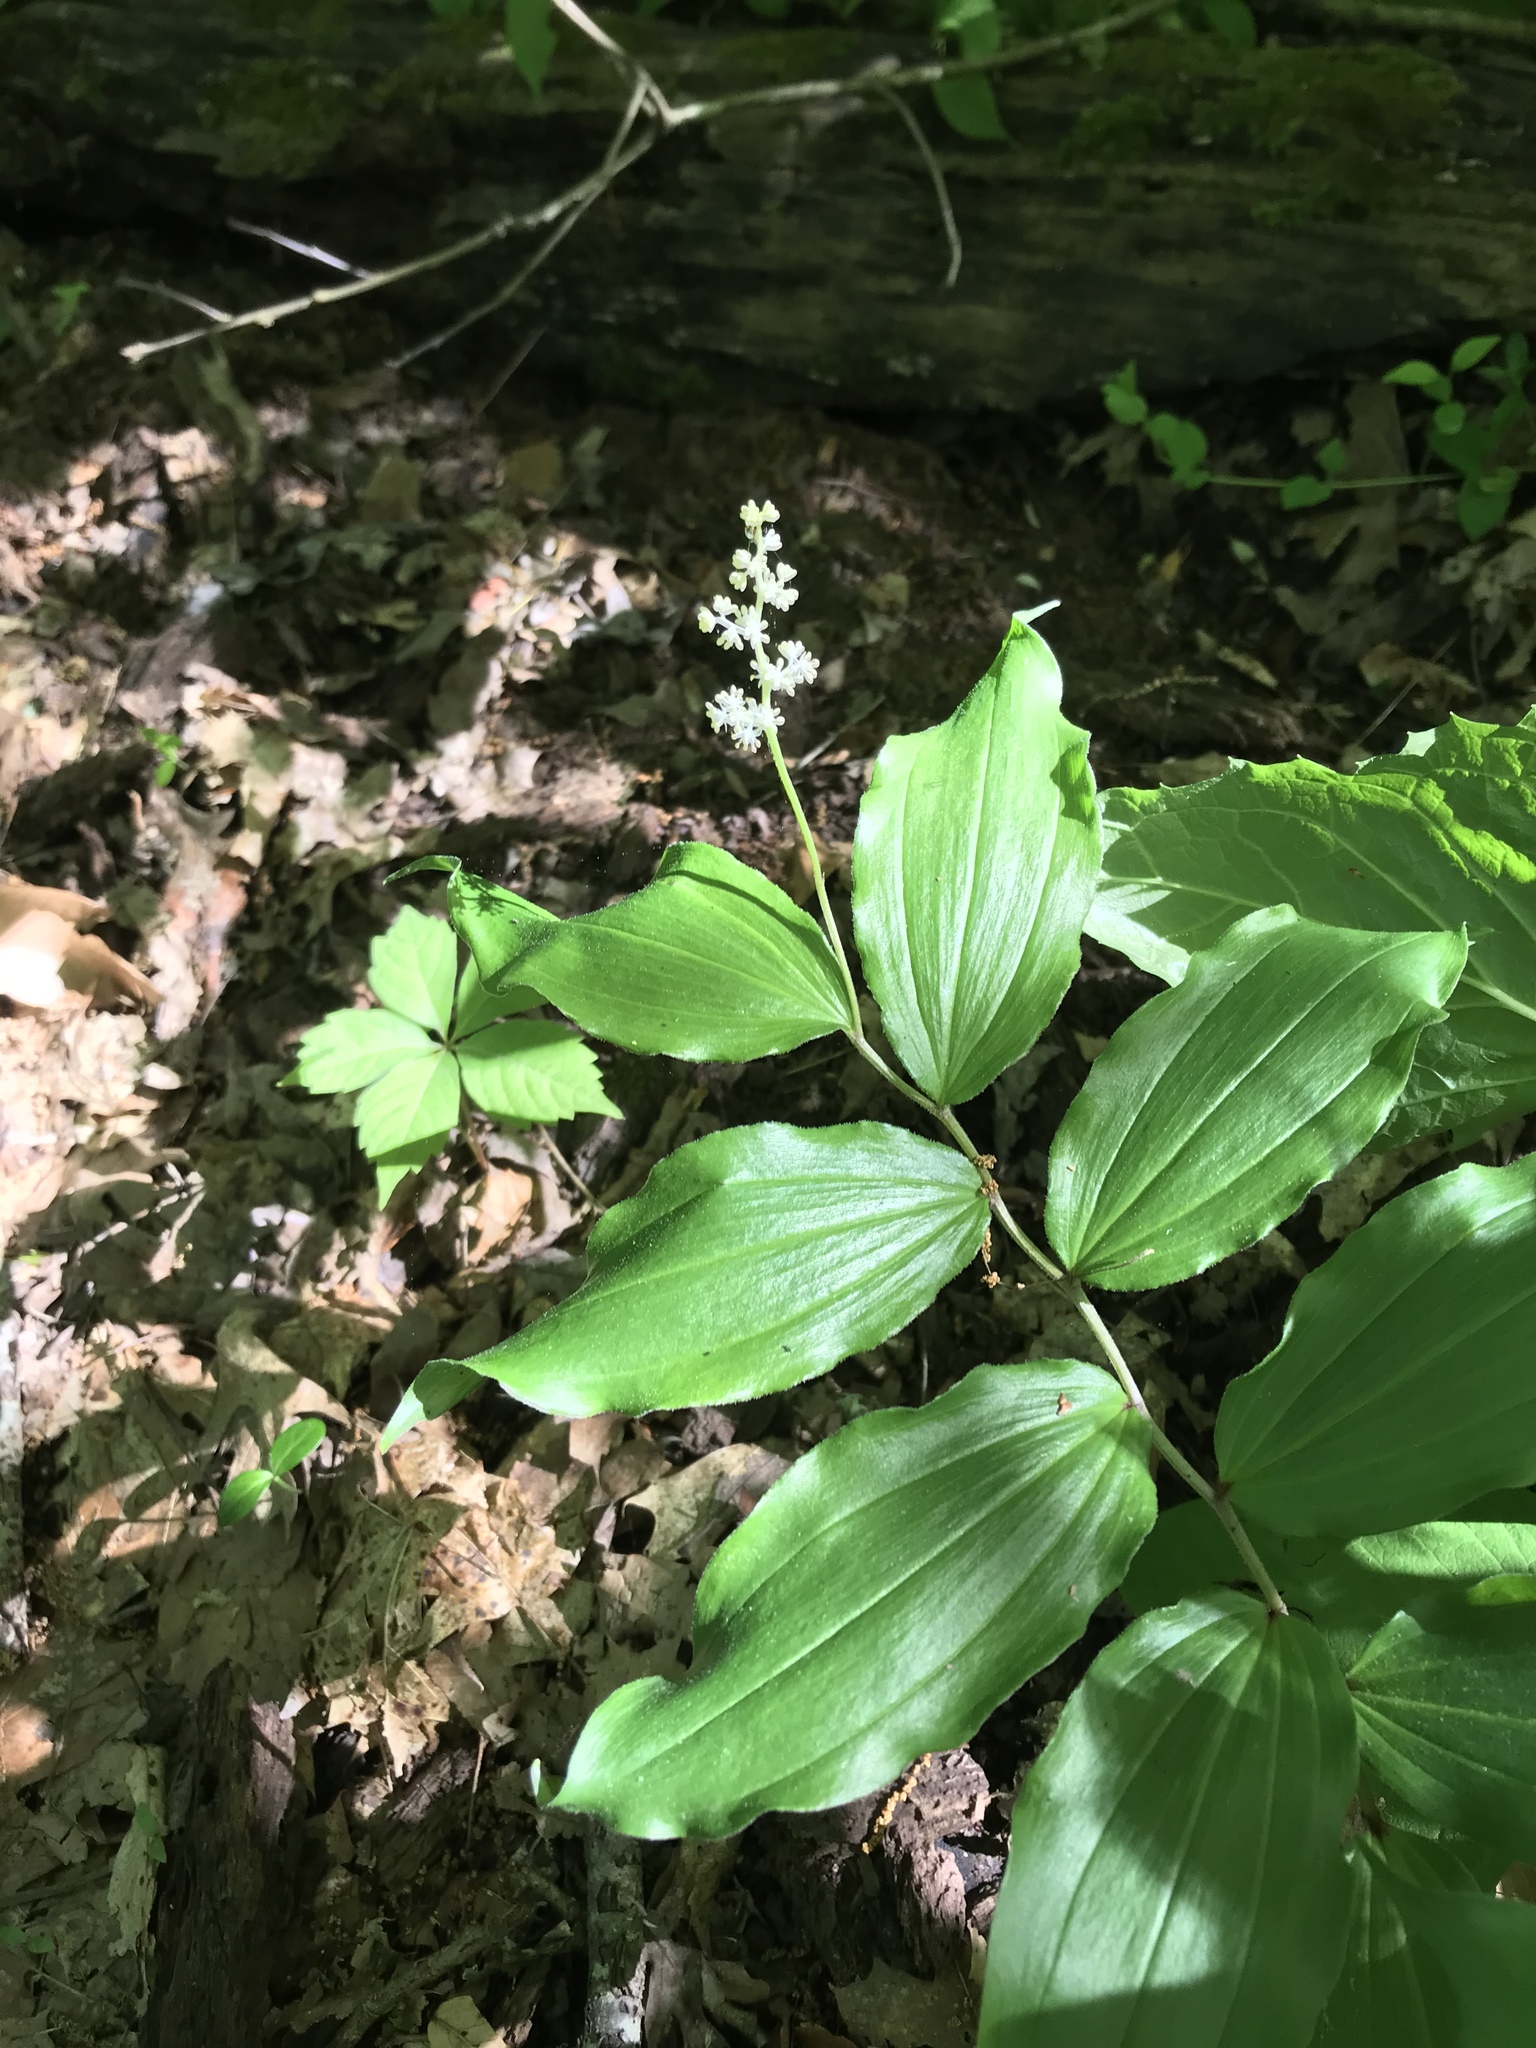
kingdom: Plantae
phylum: Tracheophyta
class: Liliopsida
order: Asparagales
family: Asparagaceae
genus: Maianthemum
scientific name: Maianthemum racemosum
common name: False spikenard
